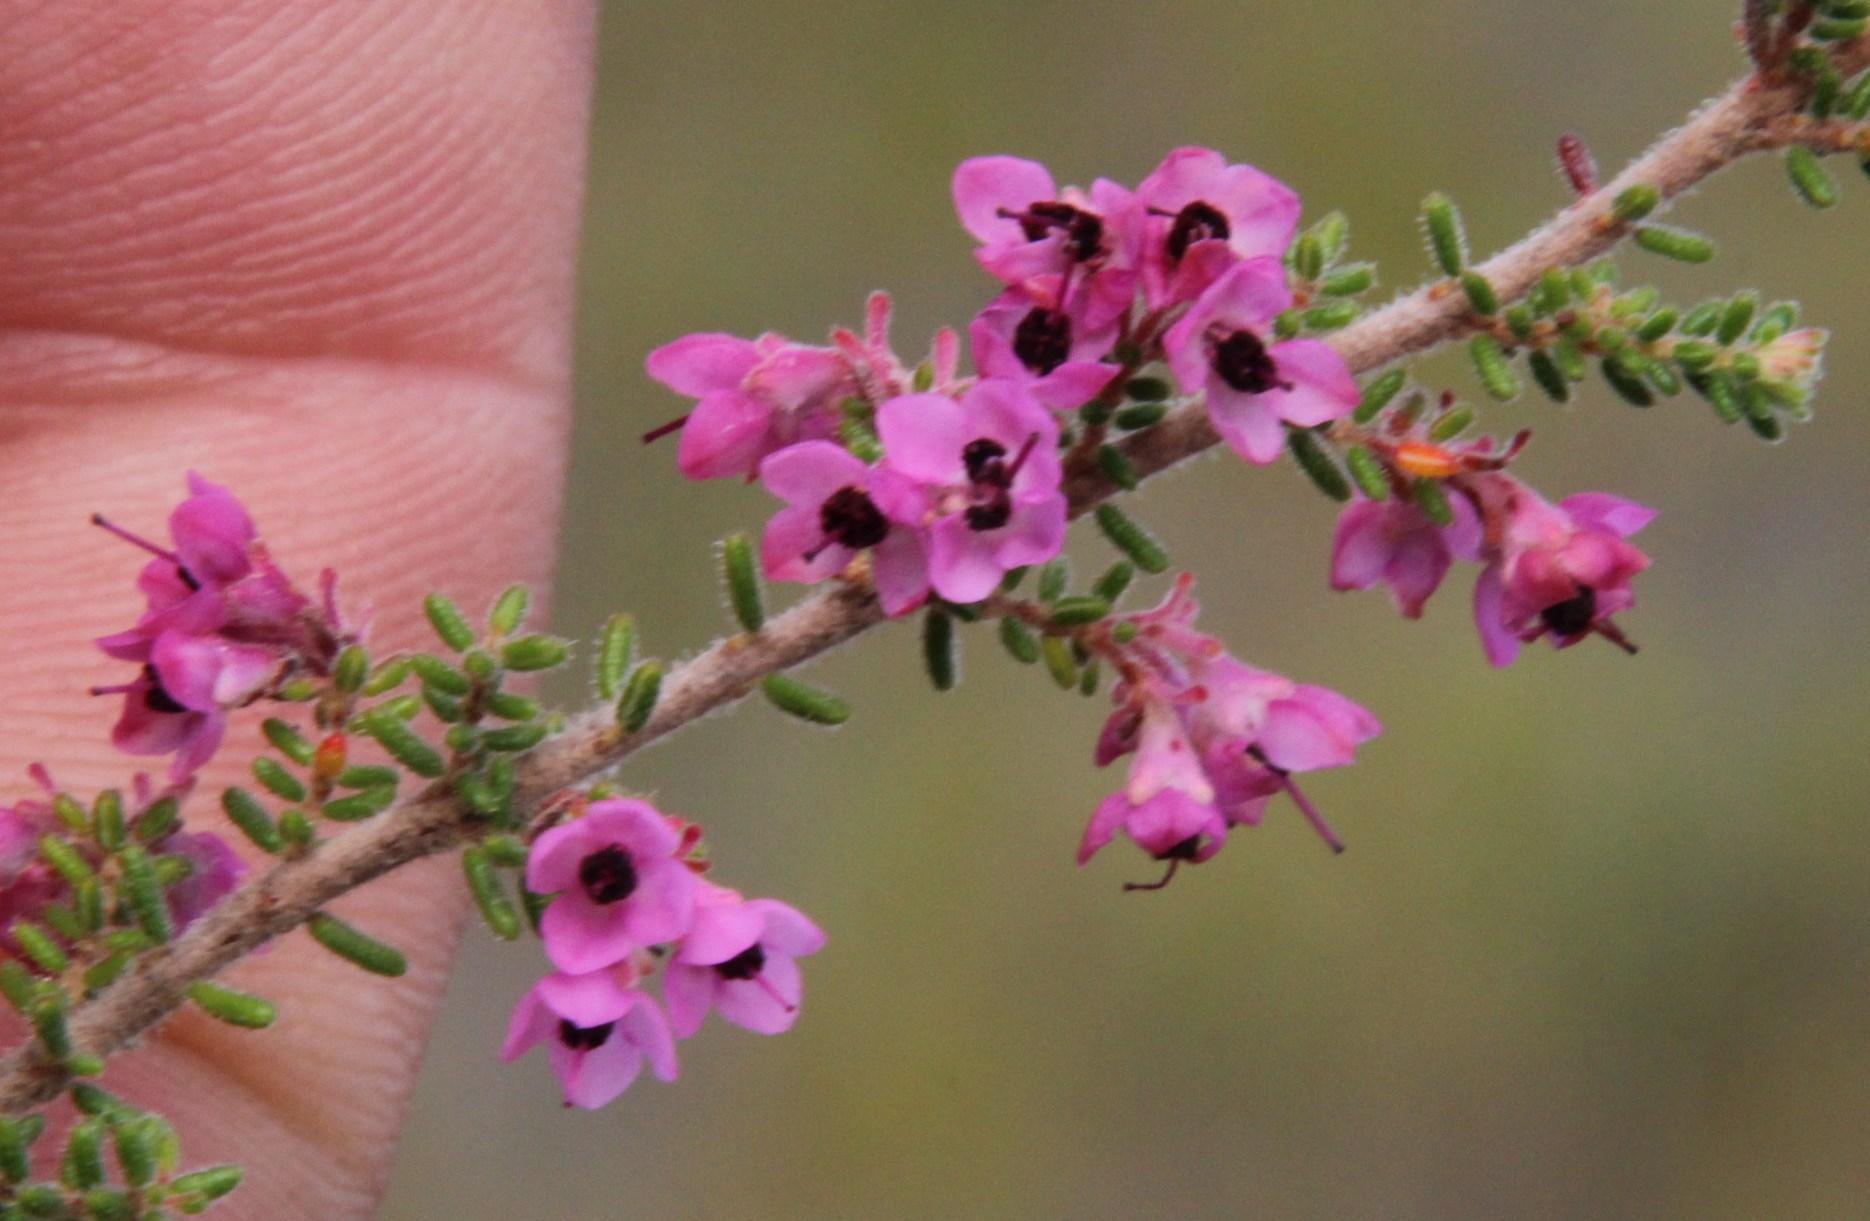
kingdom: Plantae
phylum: Tracheophyta
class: Magnoliopsida
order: Ericales
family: Ericaceae
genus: Erica
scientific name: Erica melanthera
